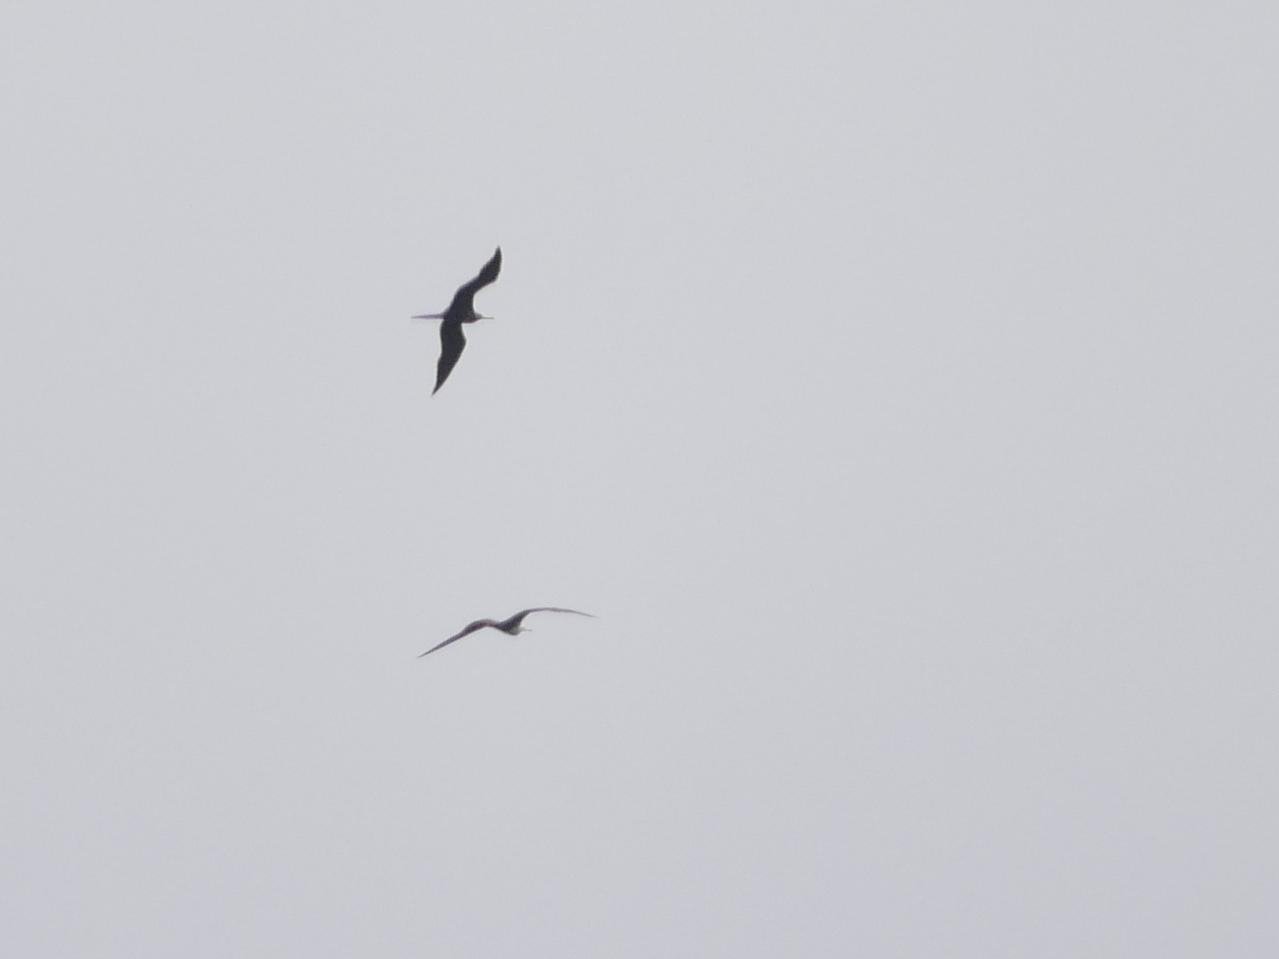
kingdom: Animalia
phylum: Chordata
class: Aves
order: Suliformes
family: Fregatidae
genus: Fregata
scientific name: Fregata magnificens
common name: Magnificent frigatebird
